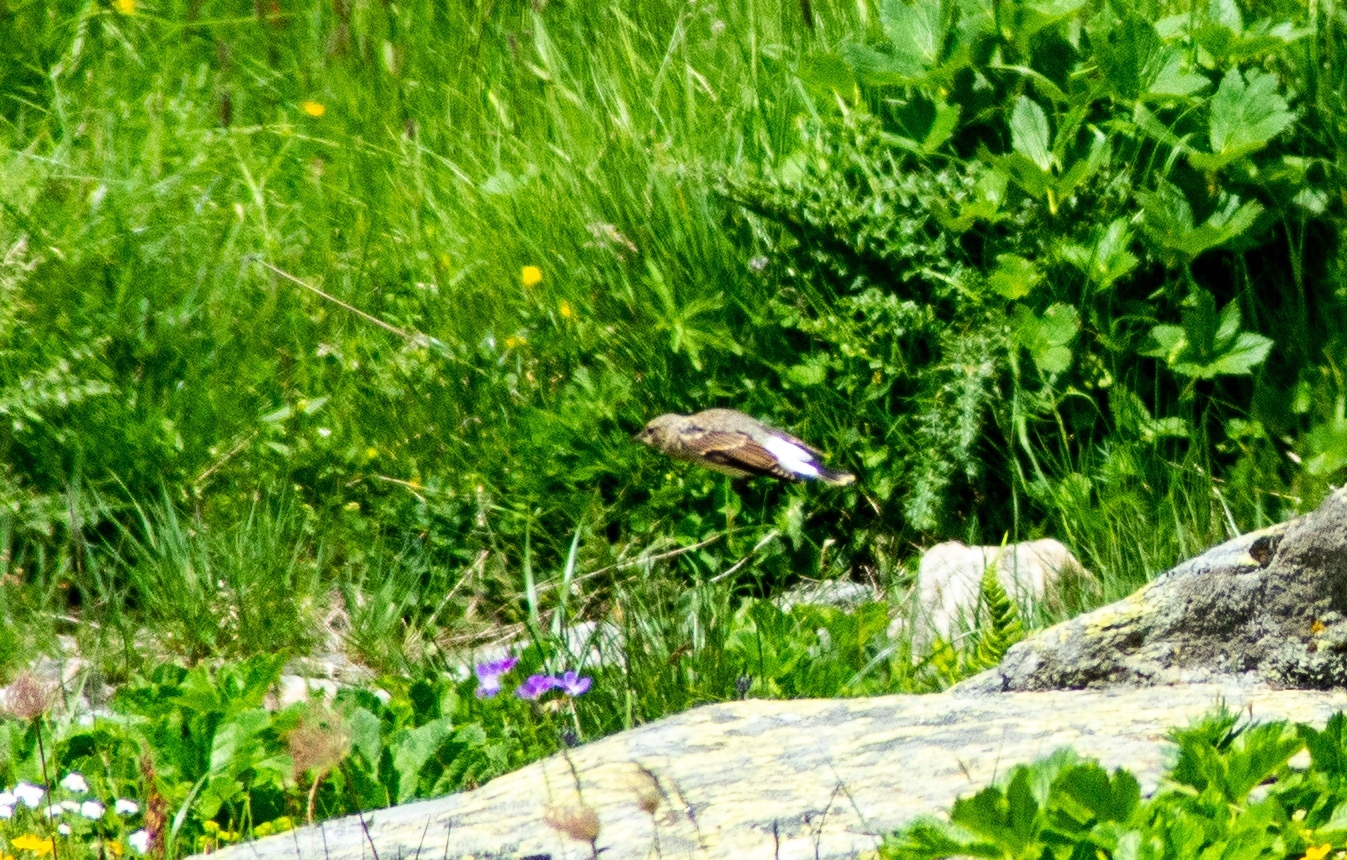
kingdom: Animalia
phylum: Chordata
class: Aves
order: Passeriformes
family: Muscicapidae
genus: Oenanthe
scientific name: Oenanthe oenanthe
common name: Northern wheatear
